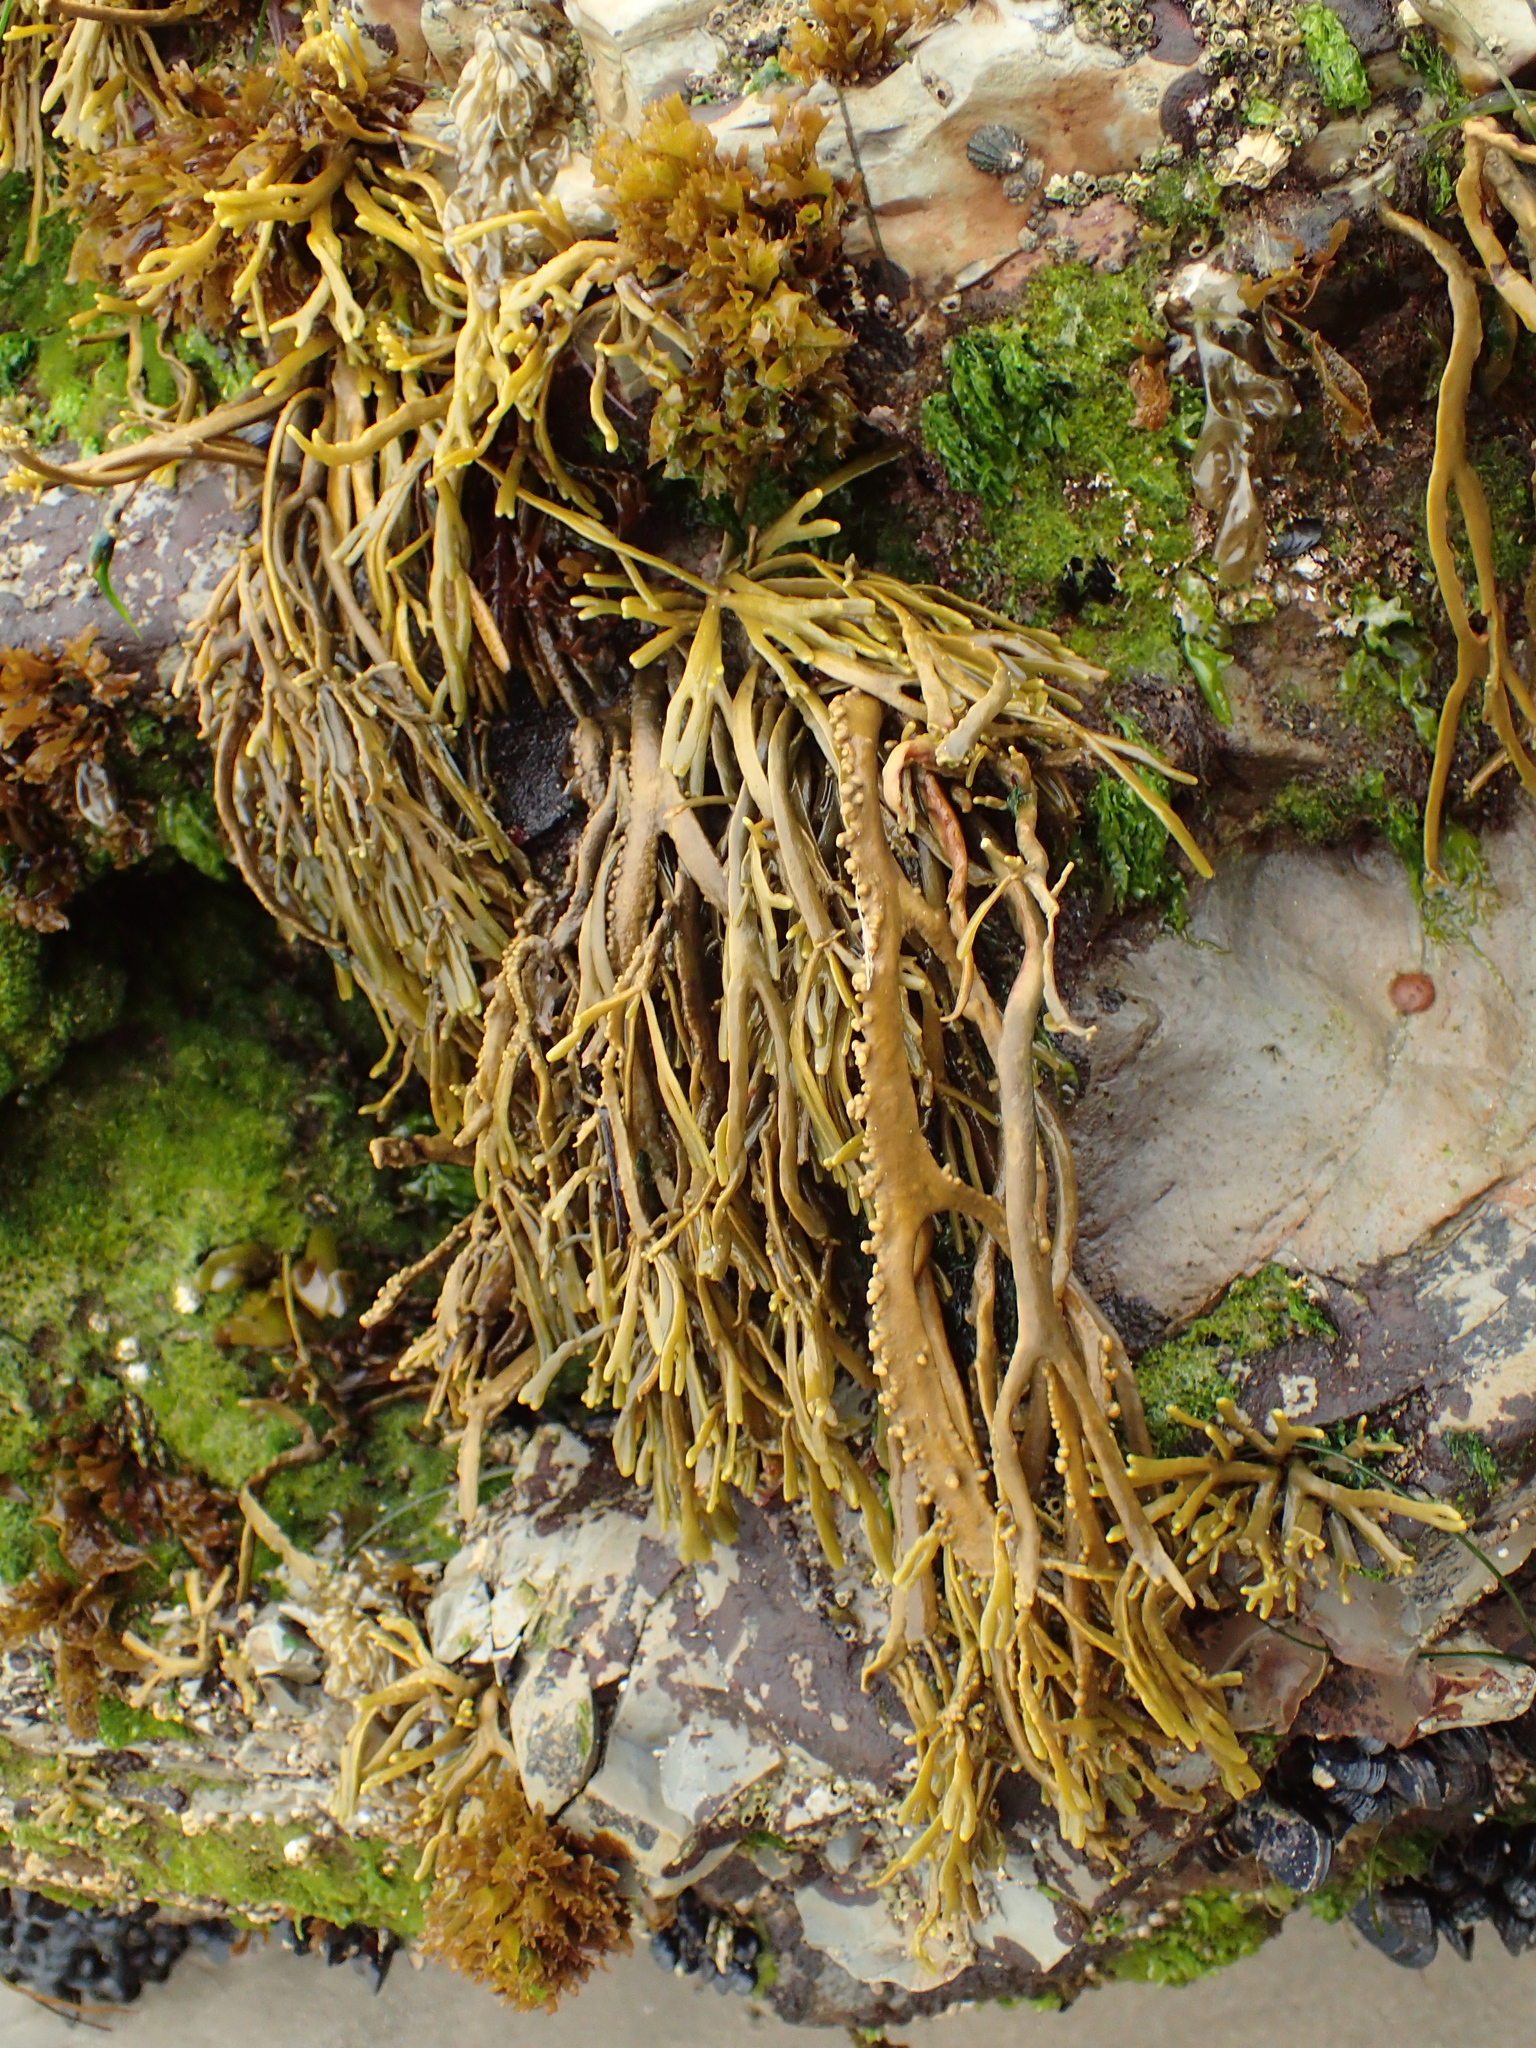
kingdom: Chromista
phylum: Ochrophyta
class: Phaeophyceae
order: Fucales
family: Fucaceae
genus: Silvetia
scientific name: Silvetia
